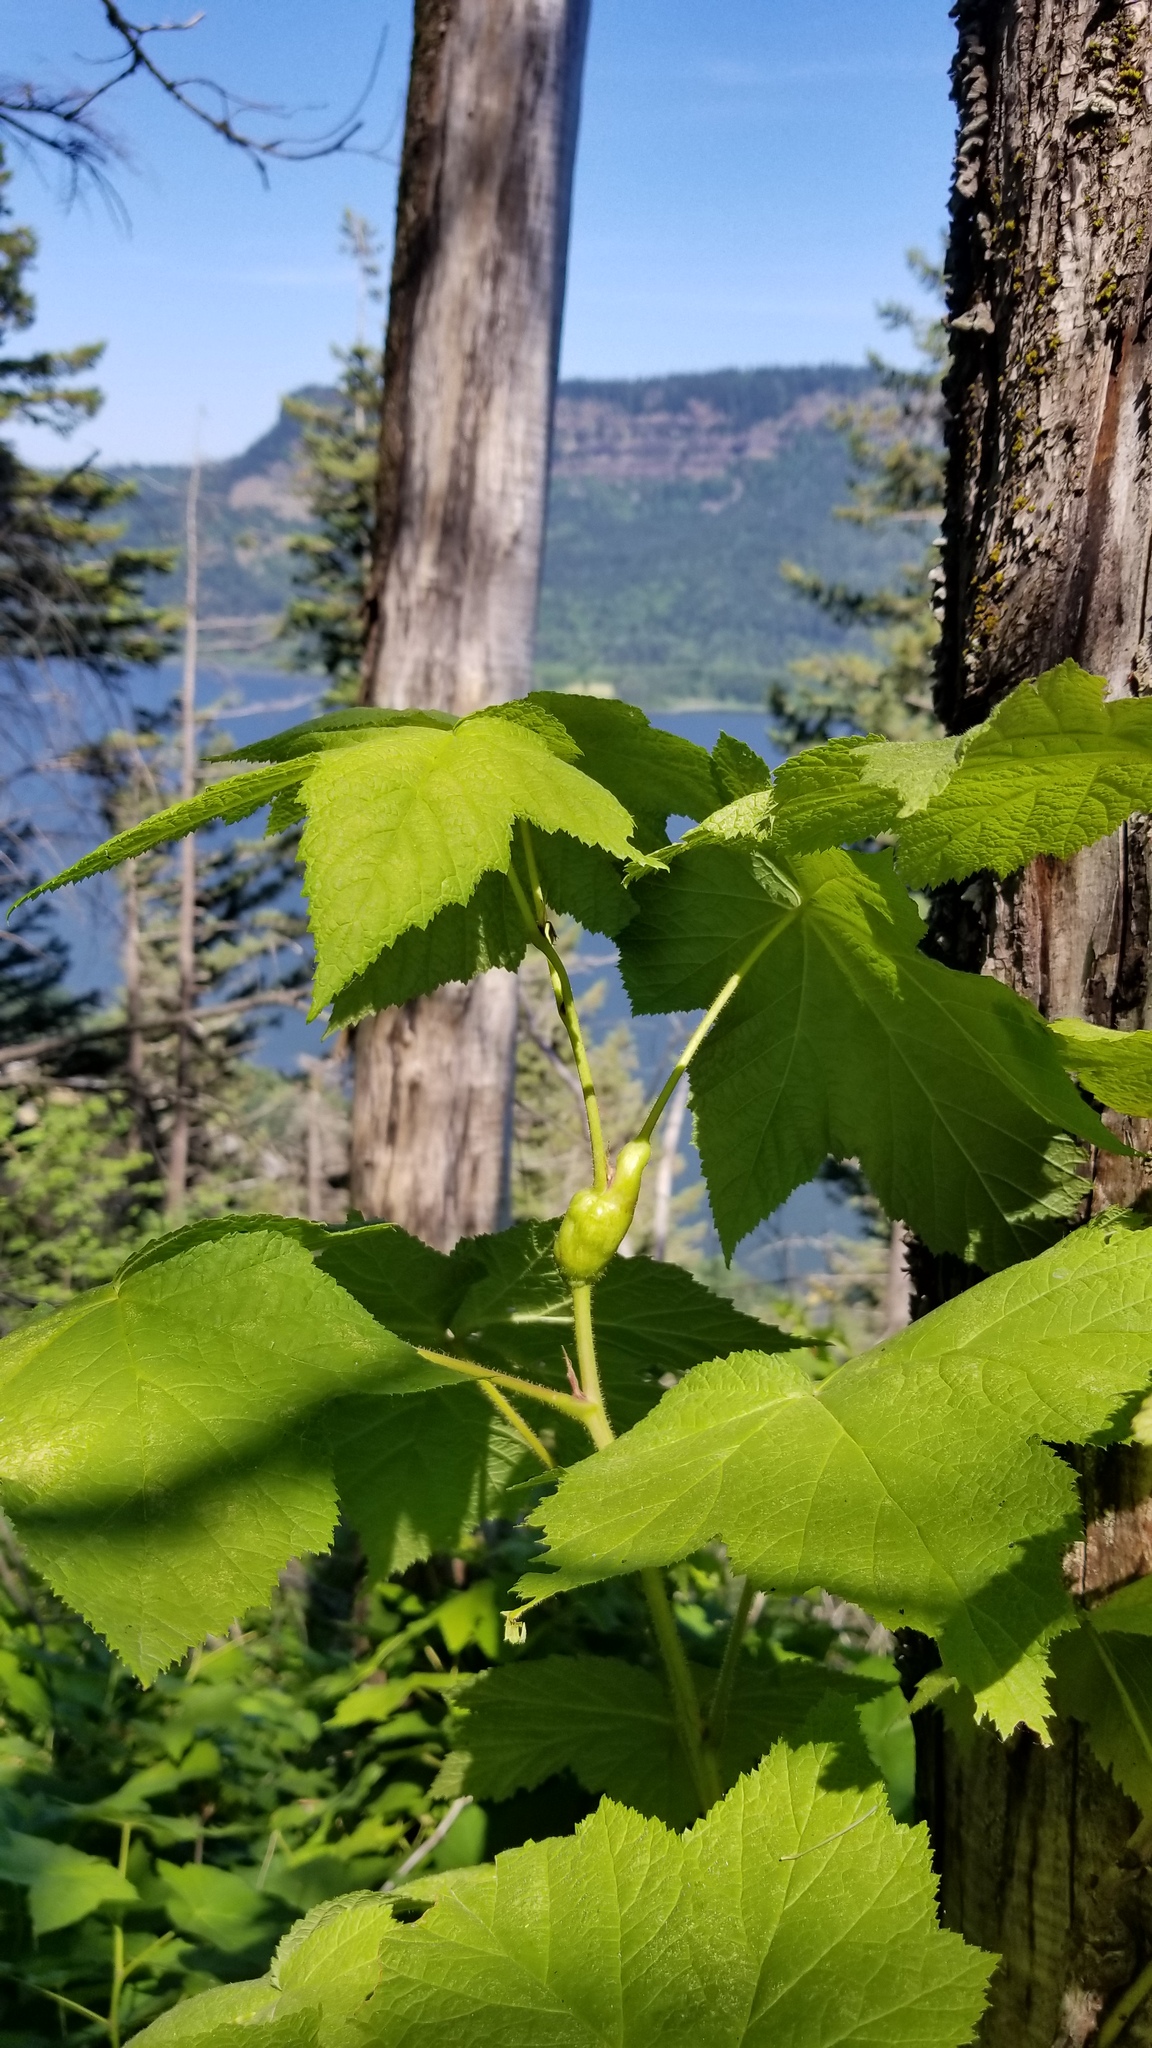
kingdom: Plantae
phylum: Tracheophyta
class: Magnoliopsida
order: Rosales
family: Rosaceae
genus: Rubus
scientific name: Rubus parviflorus
